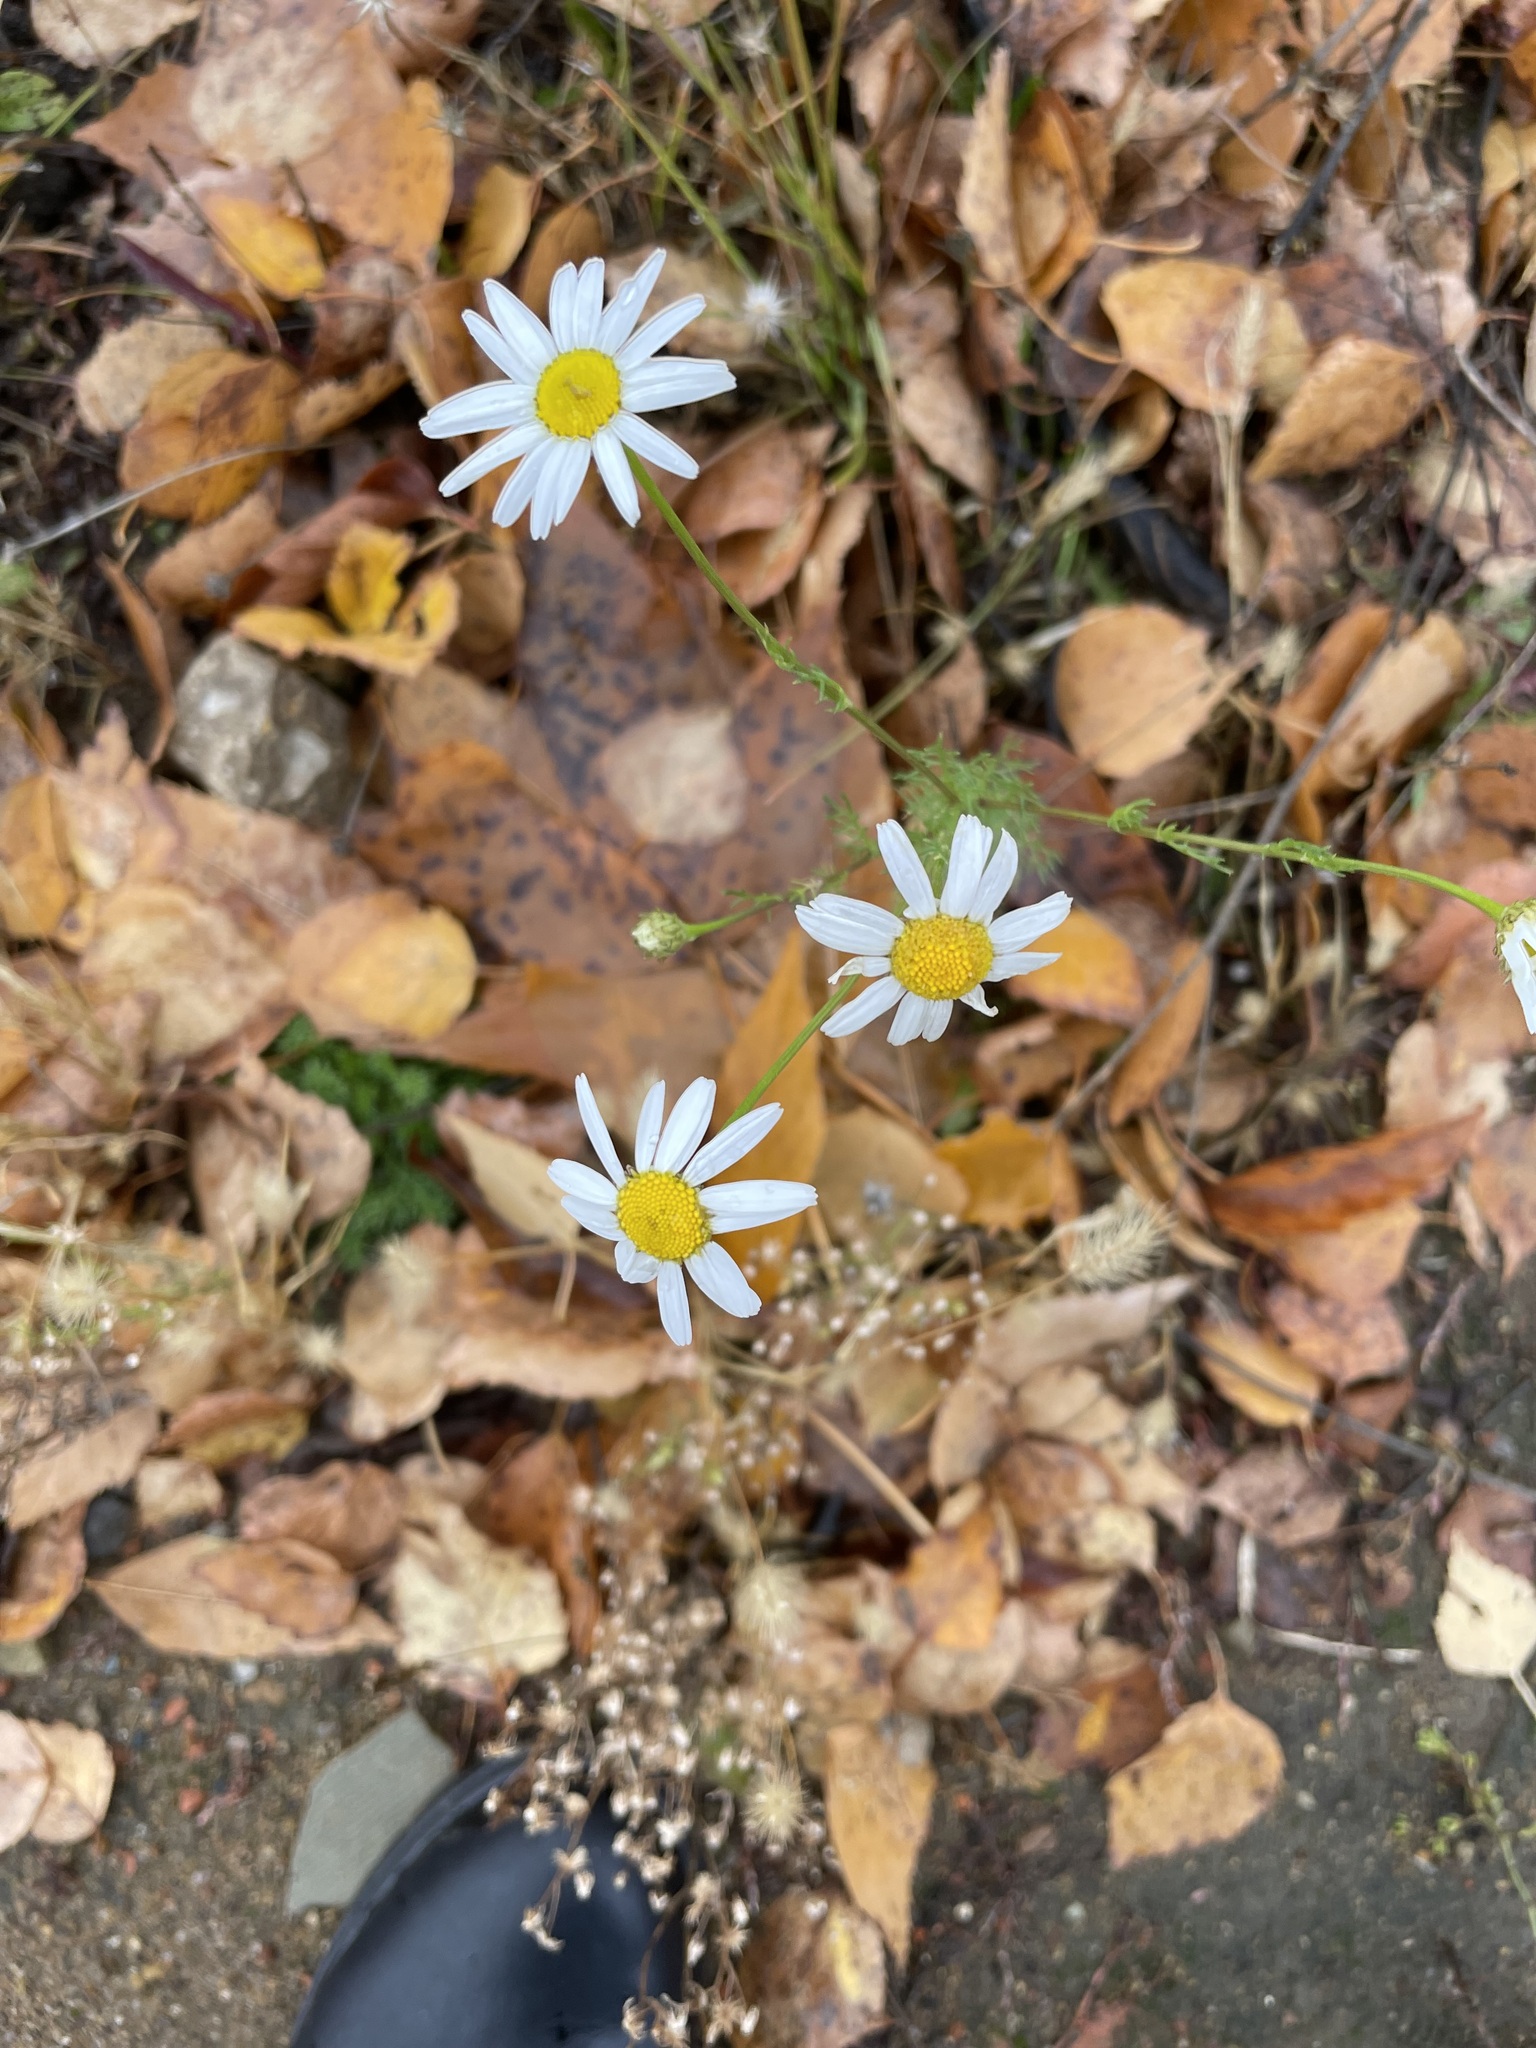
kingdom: Plantae
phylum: Tracheophyta
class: Magnoliopsida
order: Asterales
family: Asteraceae
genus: Tripleurospermum
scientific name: Tripleurospermum inodorum
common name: Scentless mayweed
